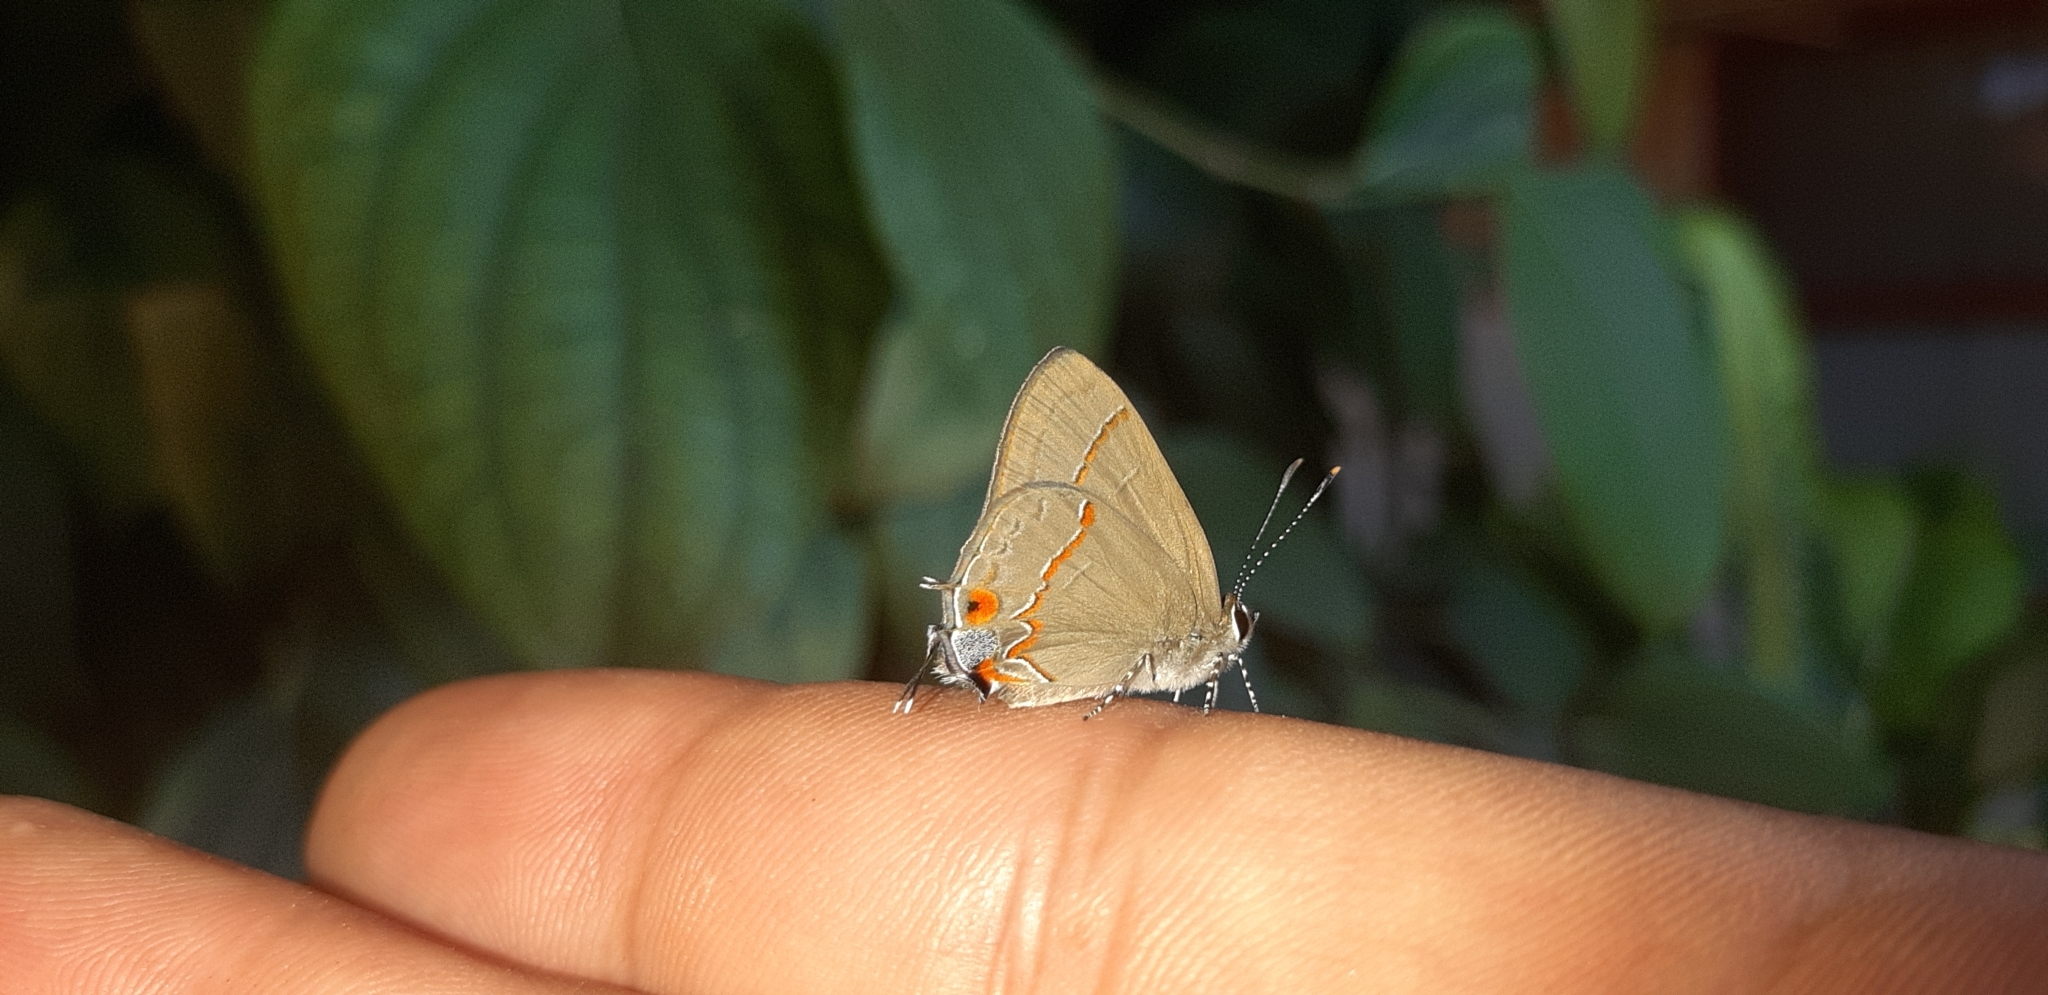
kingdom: Animalia
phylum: Arthropoda
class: Insecta
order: Lepidoptera
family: Lycaenidae
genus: Electrostrymon
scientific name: Electrostrymon endymion
